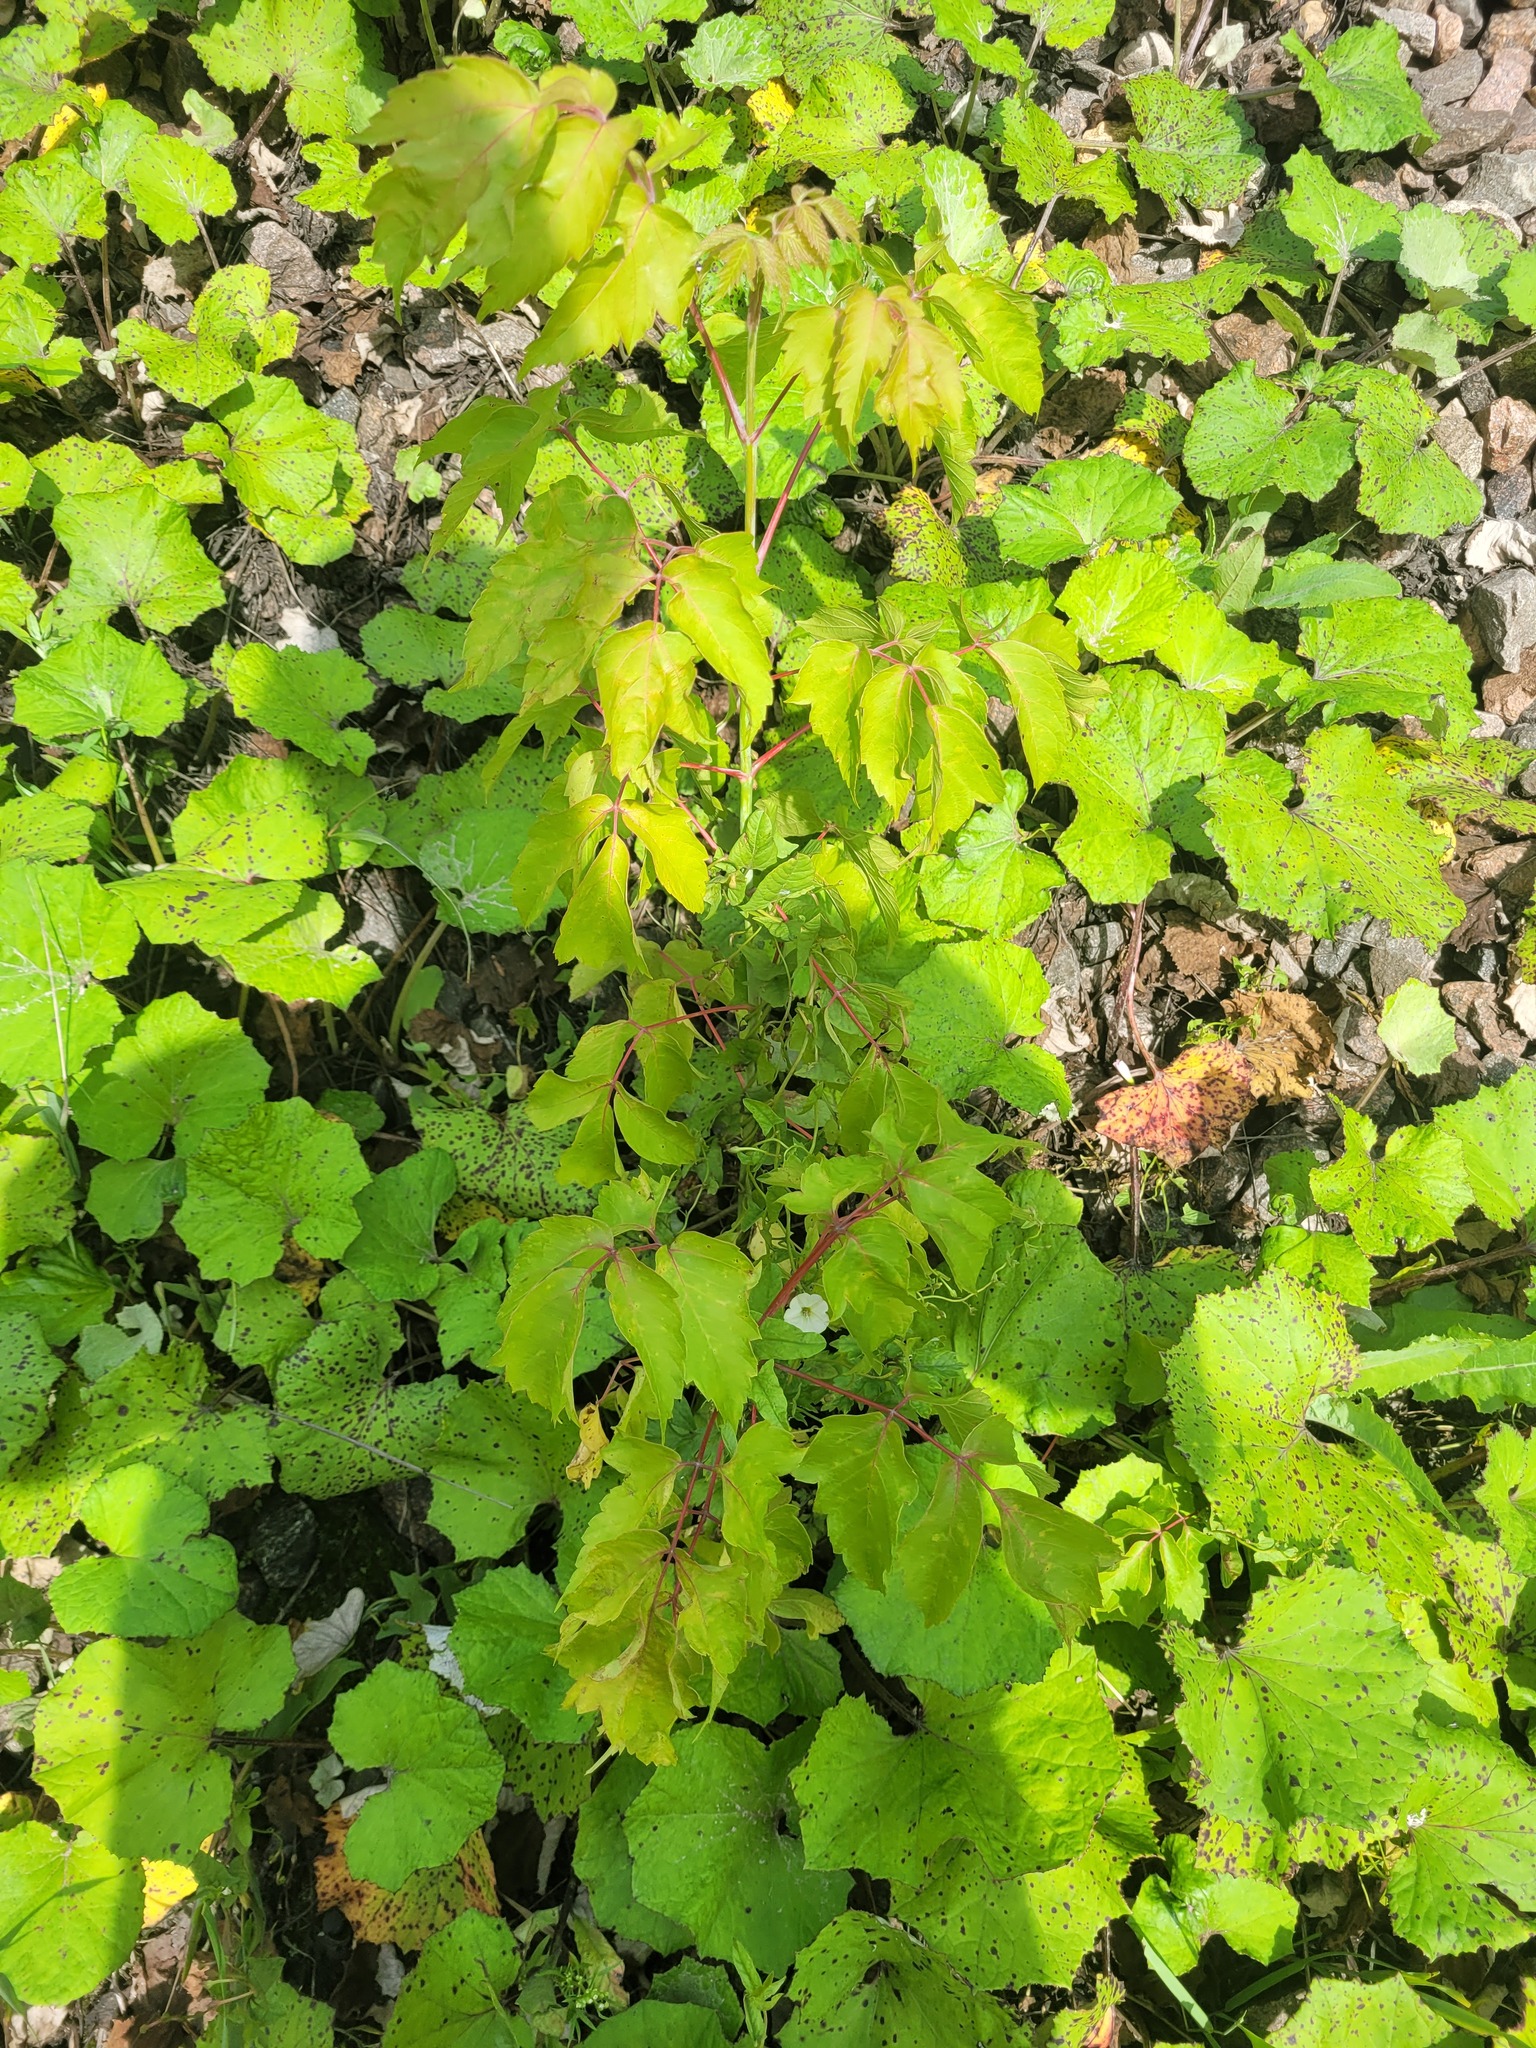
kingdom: Plantae
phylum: Tracheophyta
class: Magnoliopsida
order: Sapindales
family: Sapindaceae
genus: Acer
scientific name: Acer negundo
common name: Ashleaf maple
